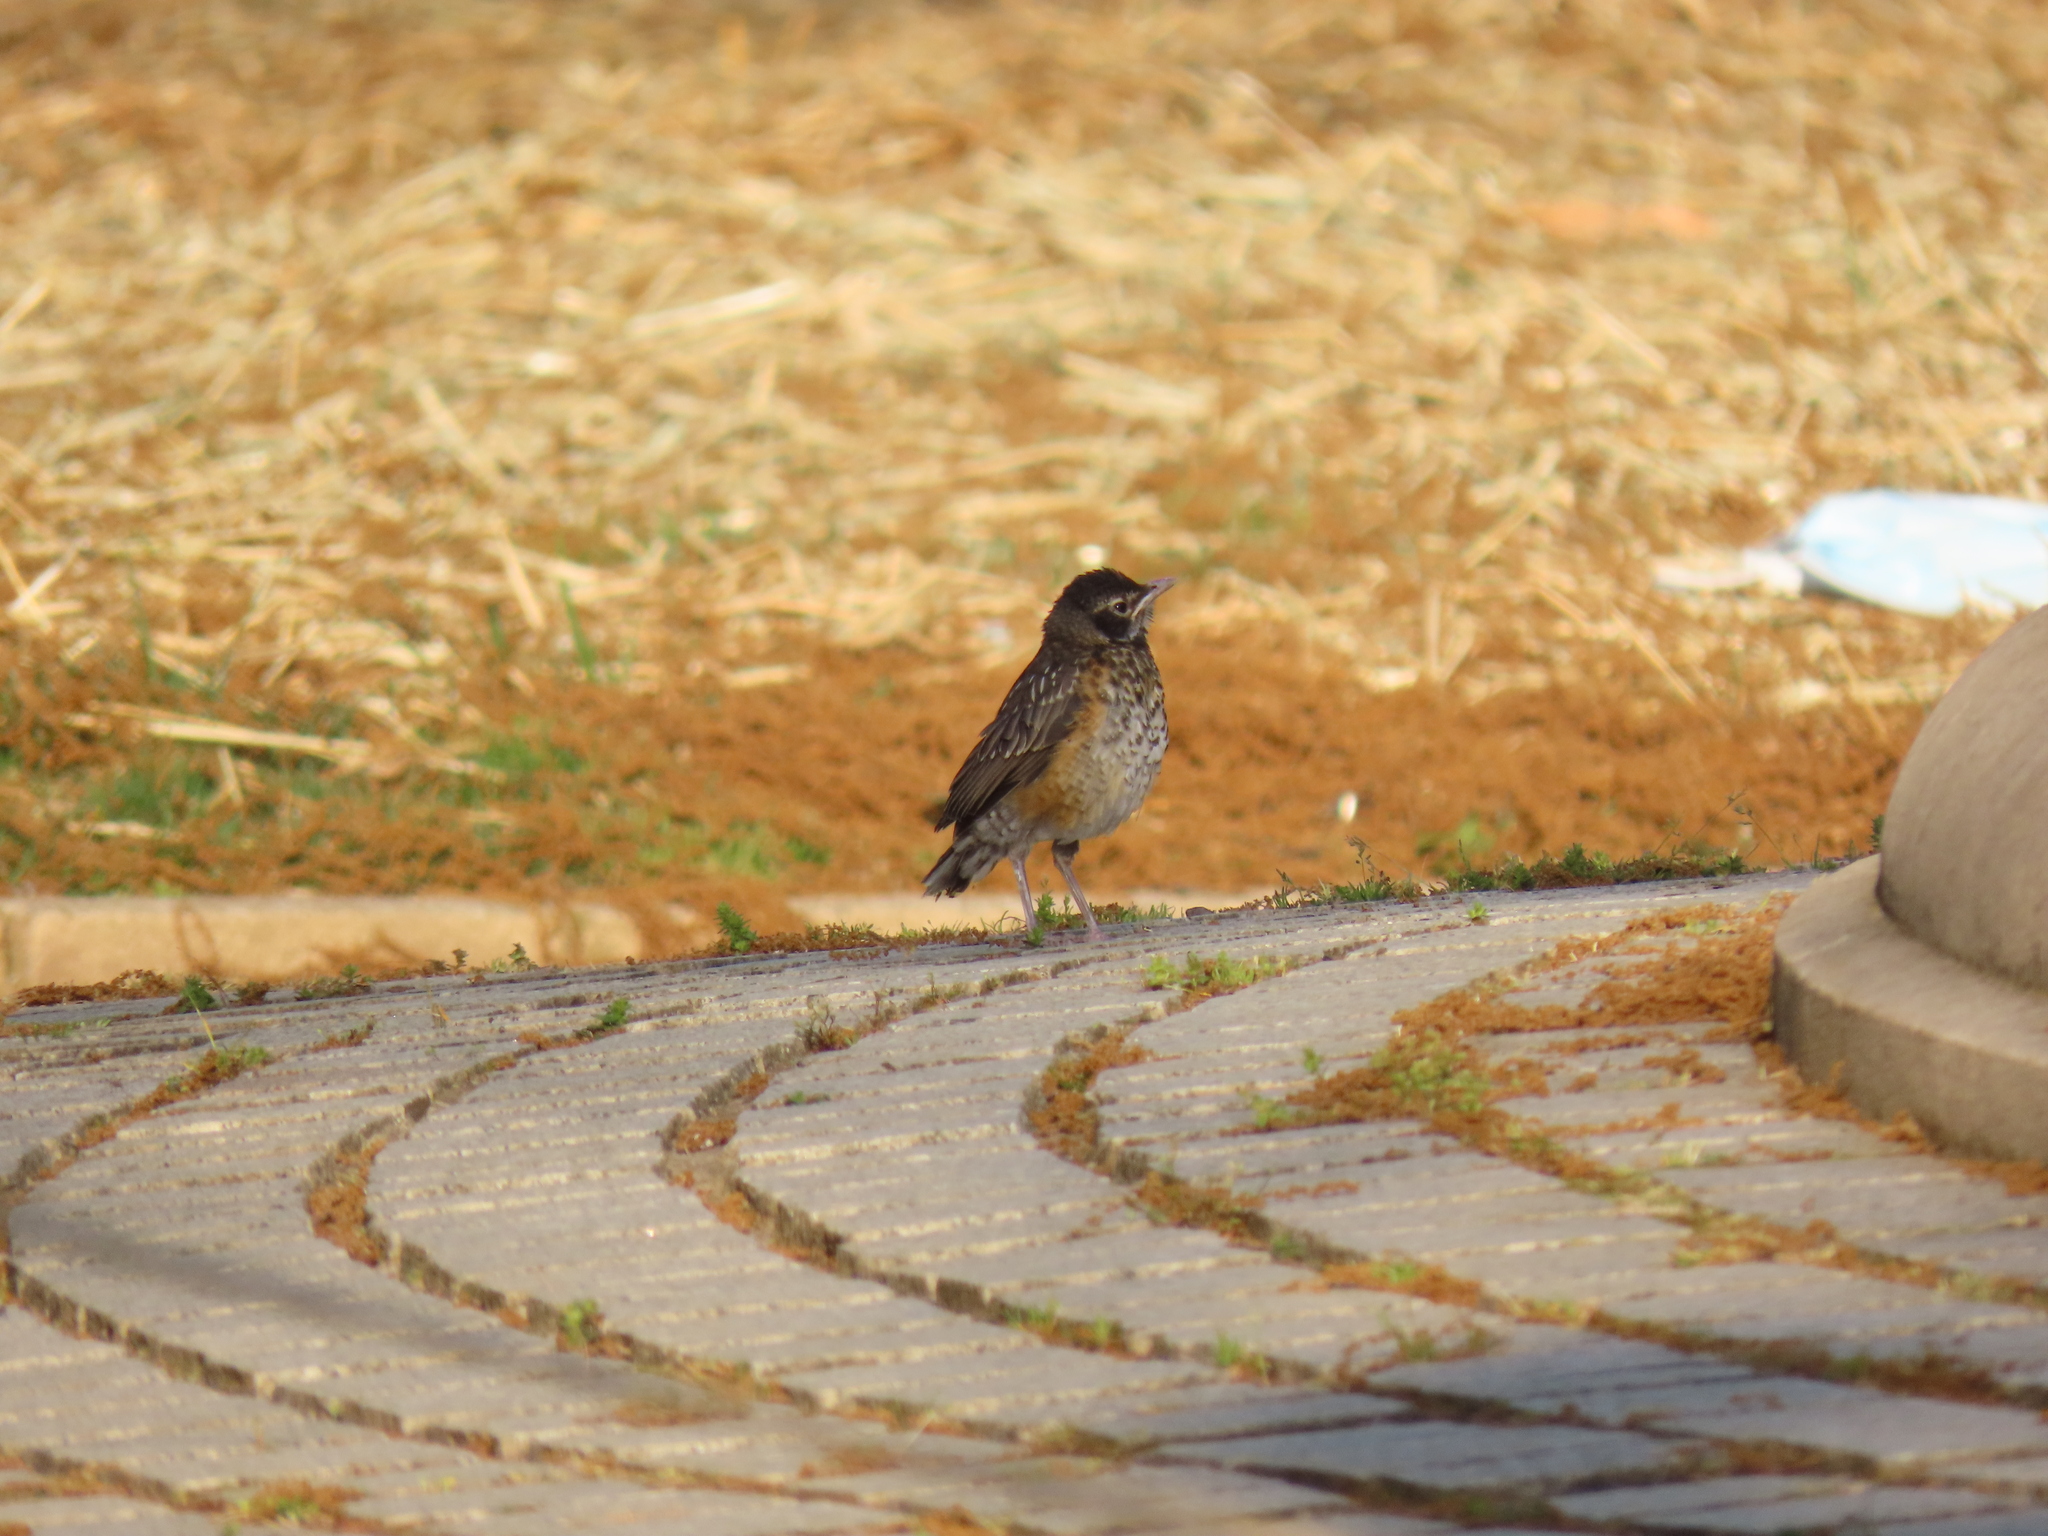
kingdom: Animalia
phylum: Chordata
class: Aves
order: Passeriformes
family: Turdidae
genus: Turdus
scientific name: Turdus migratorius
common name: American robin
